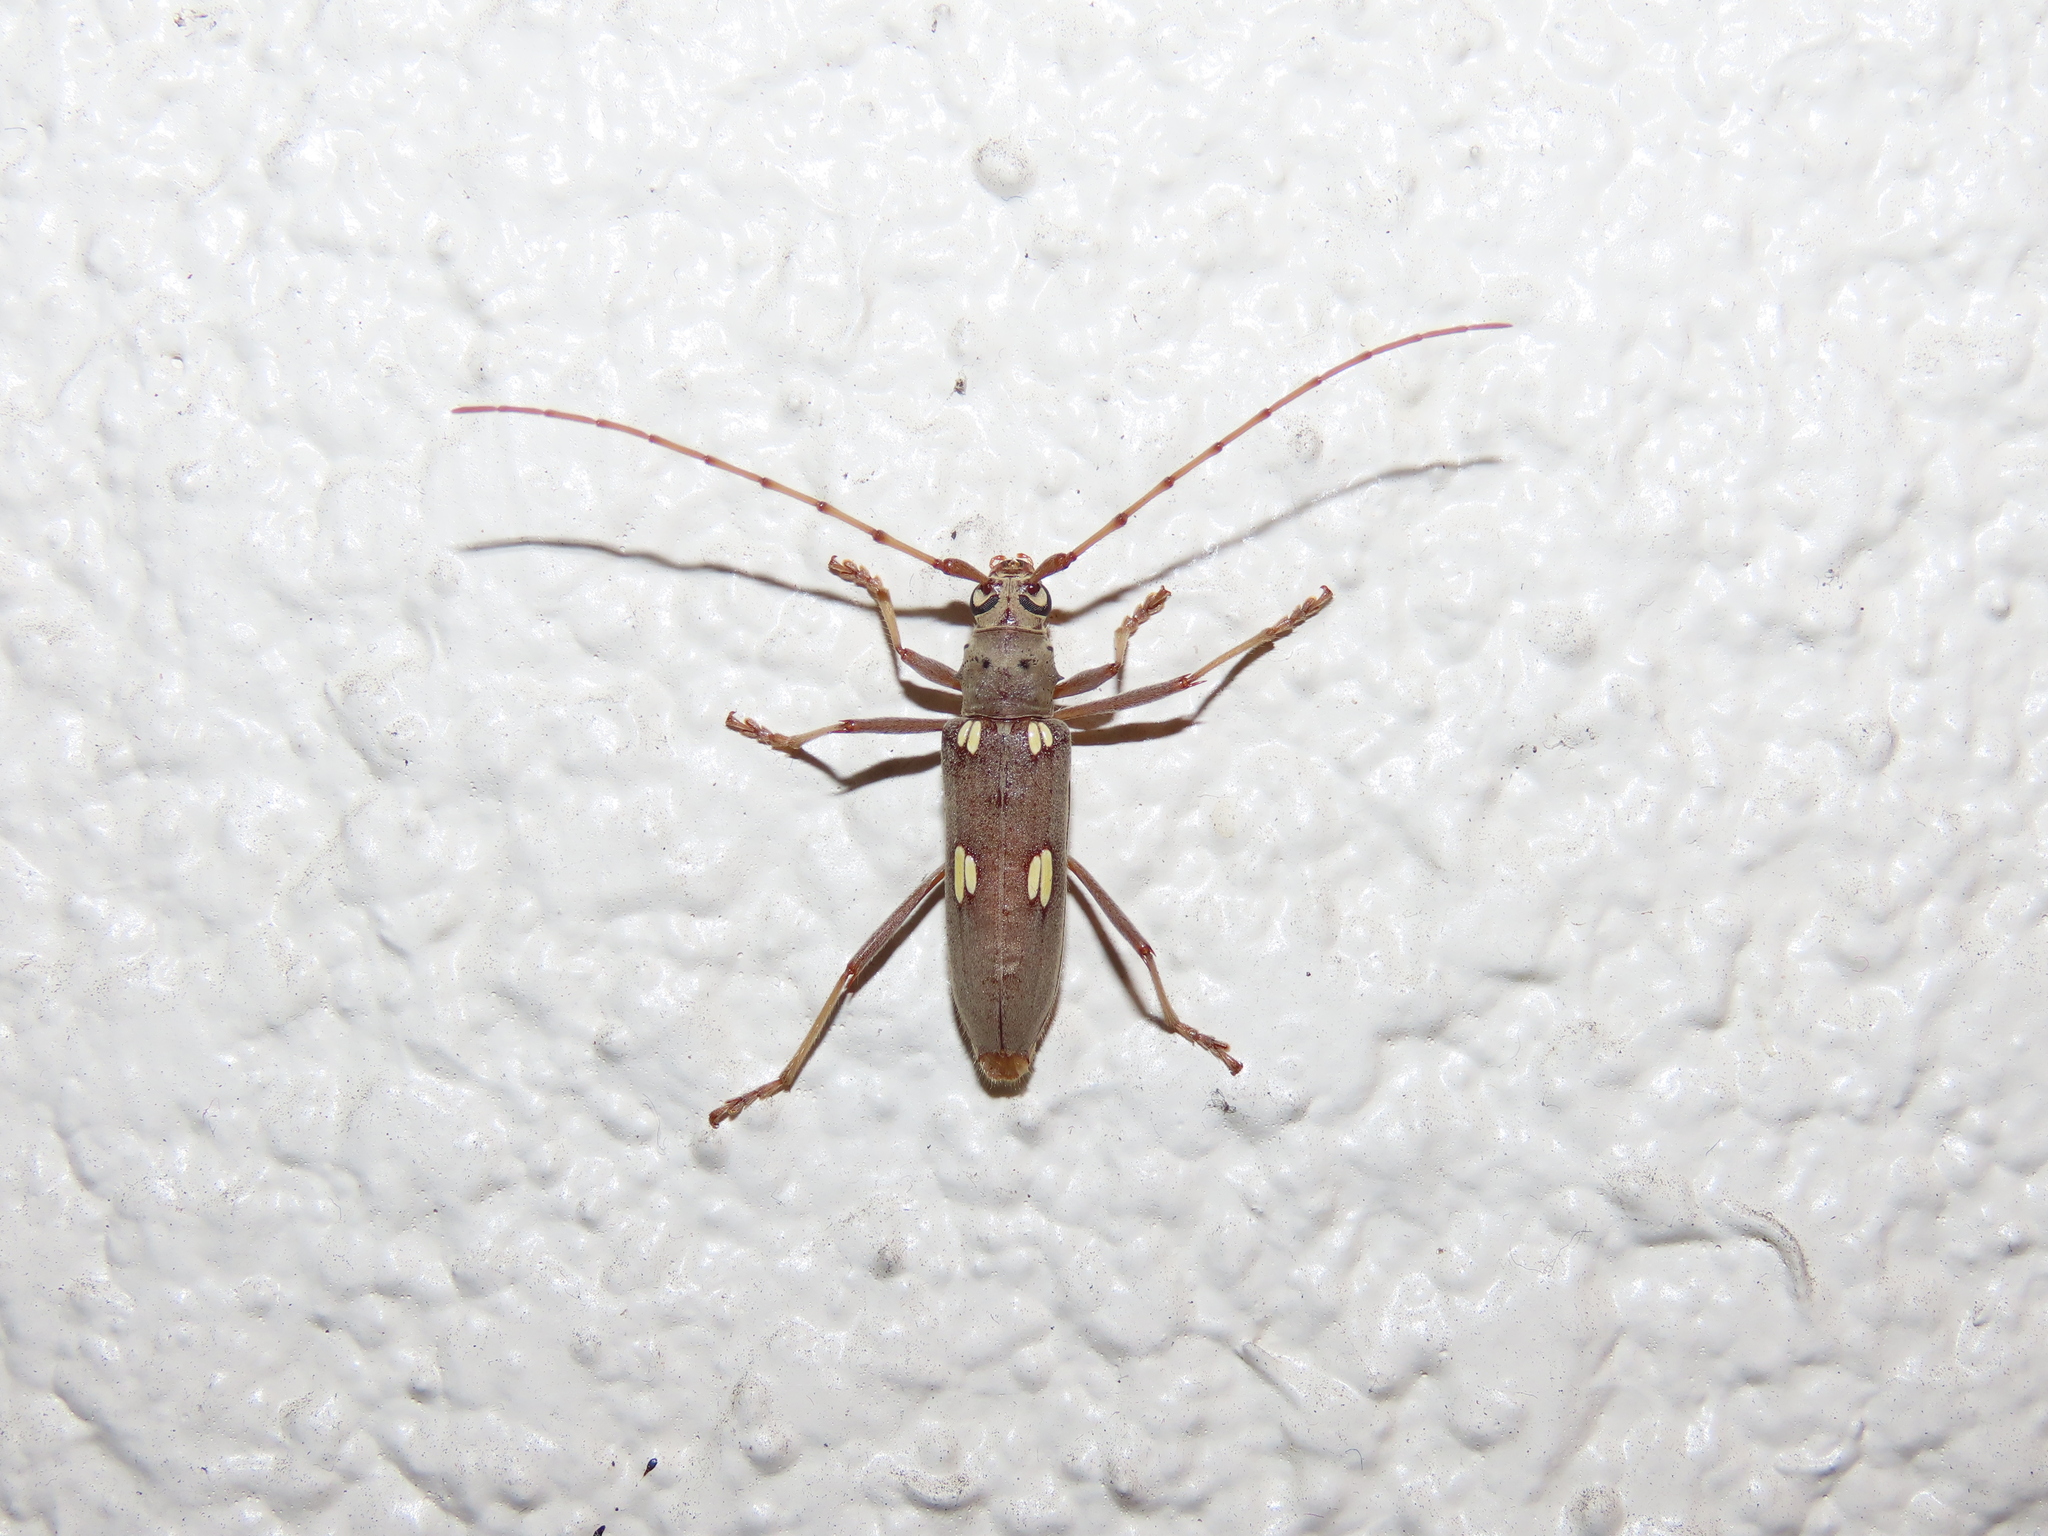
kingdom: Animalia
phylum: Arthropoda
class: Insecta
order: Coleoptera
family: Cerambycidae
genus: Eburia
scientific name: Eburia distincta
